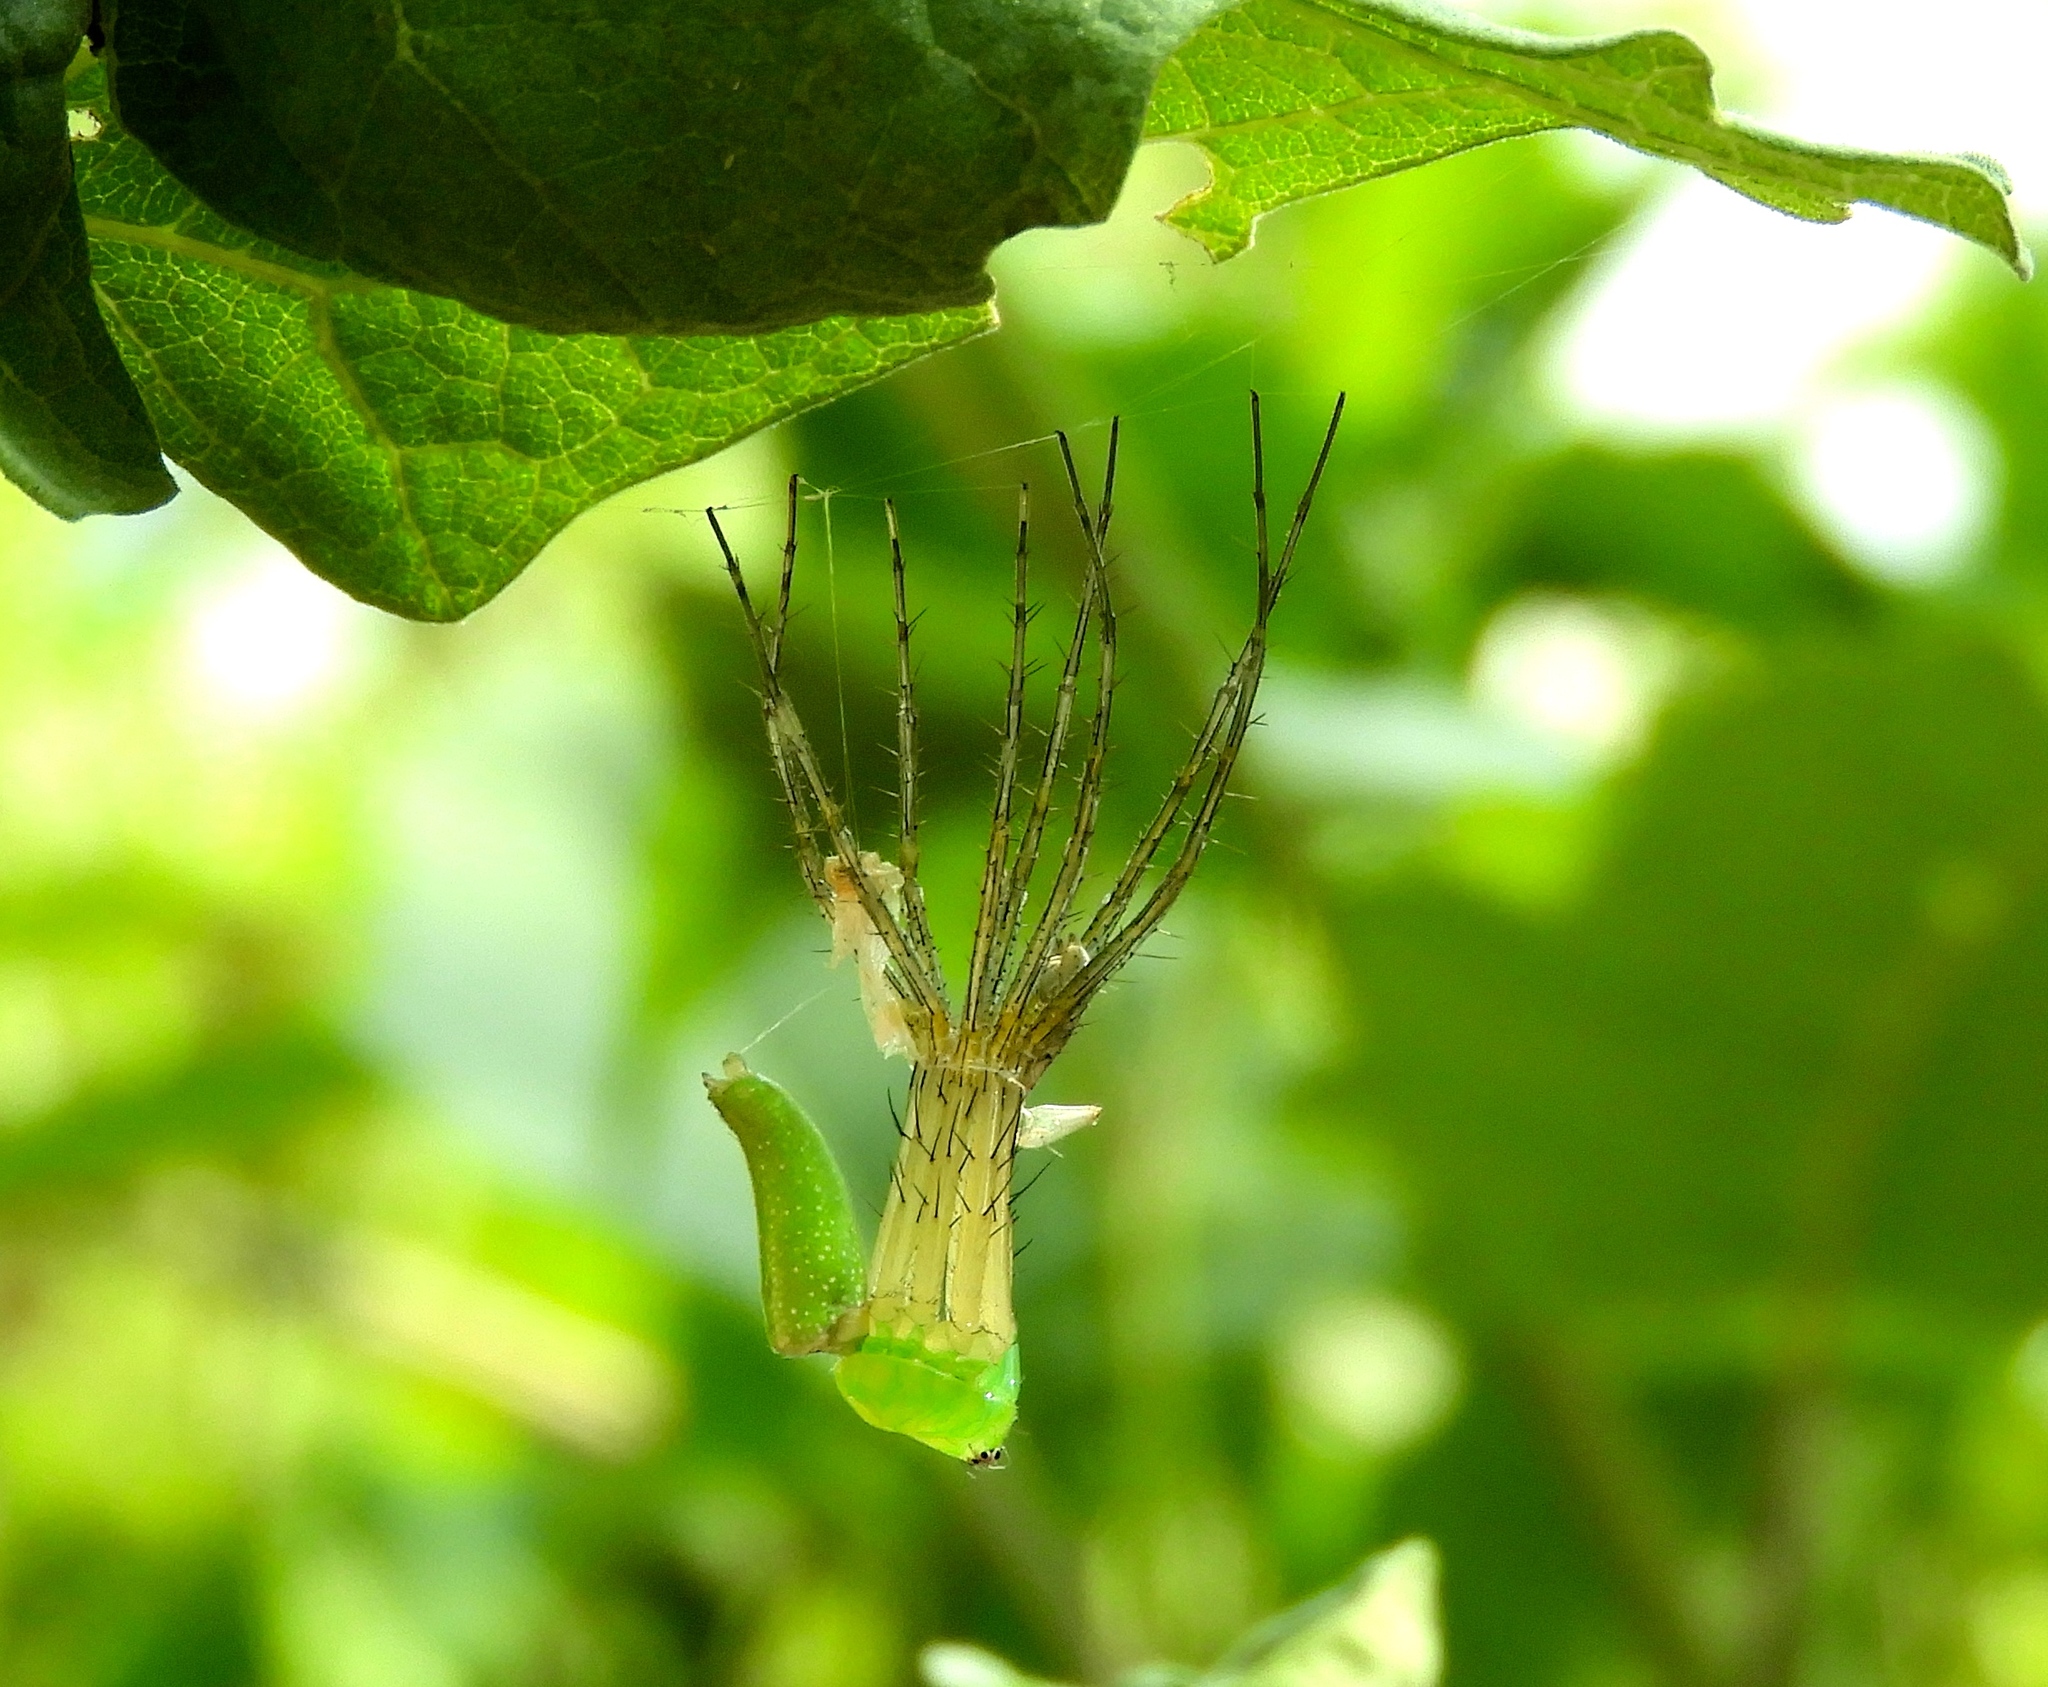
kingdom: Animalia
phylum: Arthropoda
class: Arachnida
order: Araneae
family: Oxyopidae
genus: Peucetia
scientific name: Peucetia
